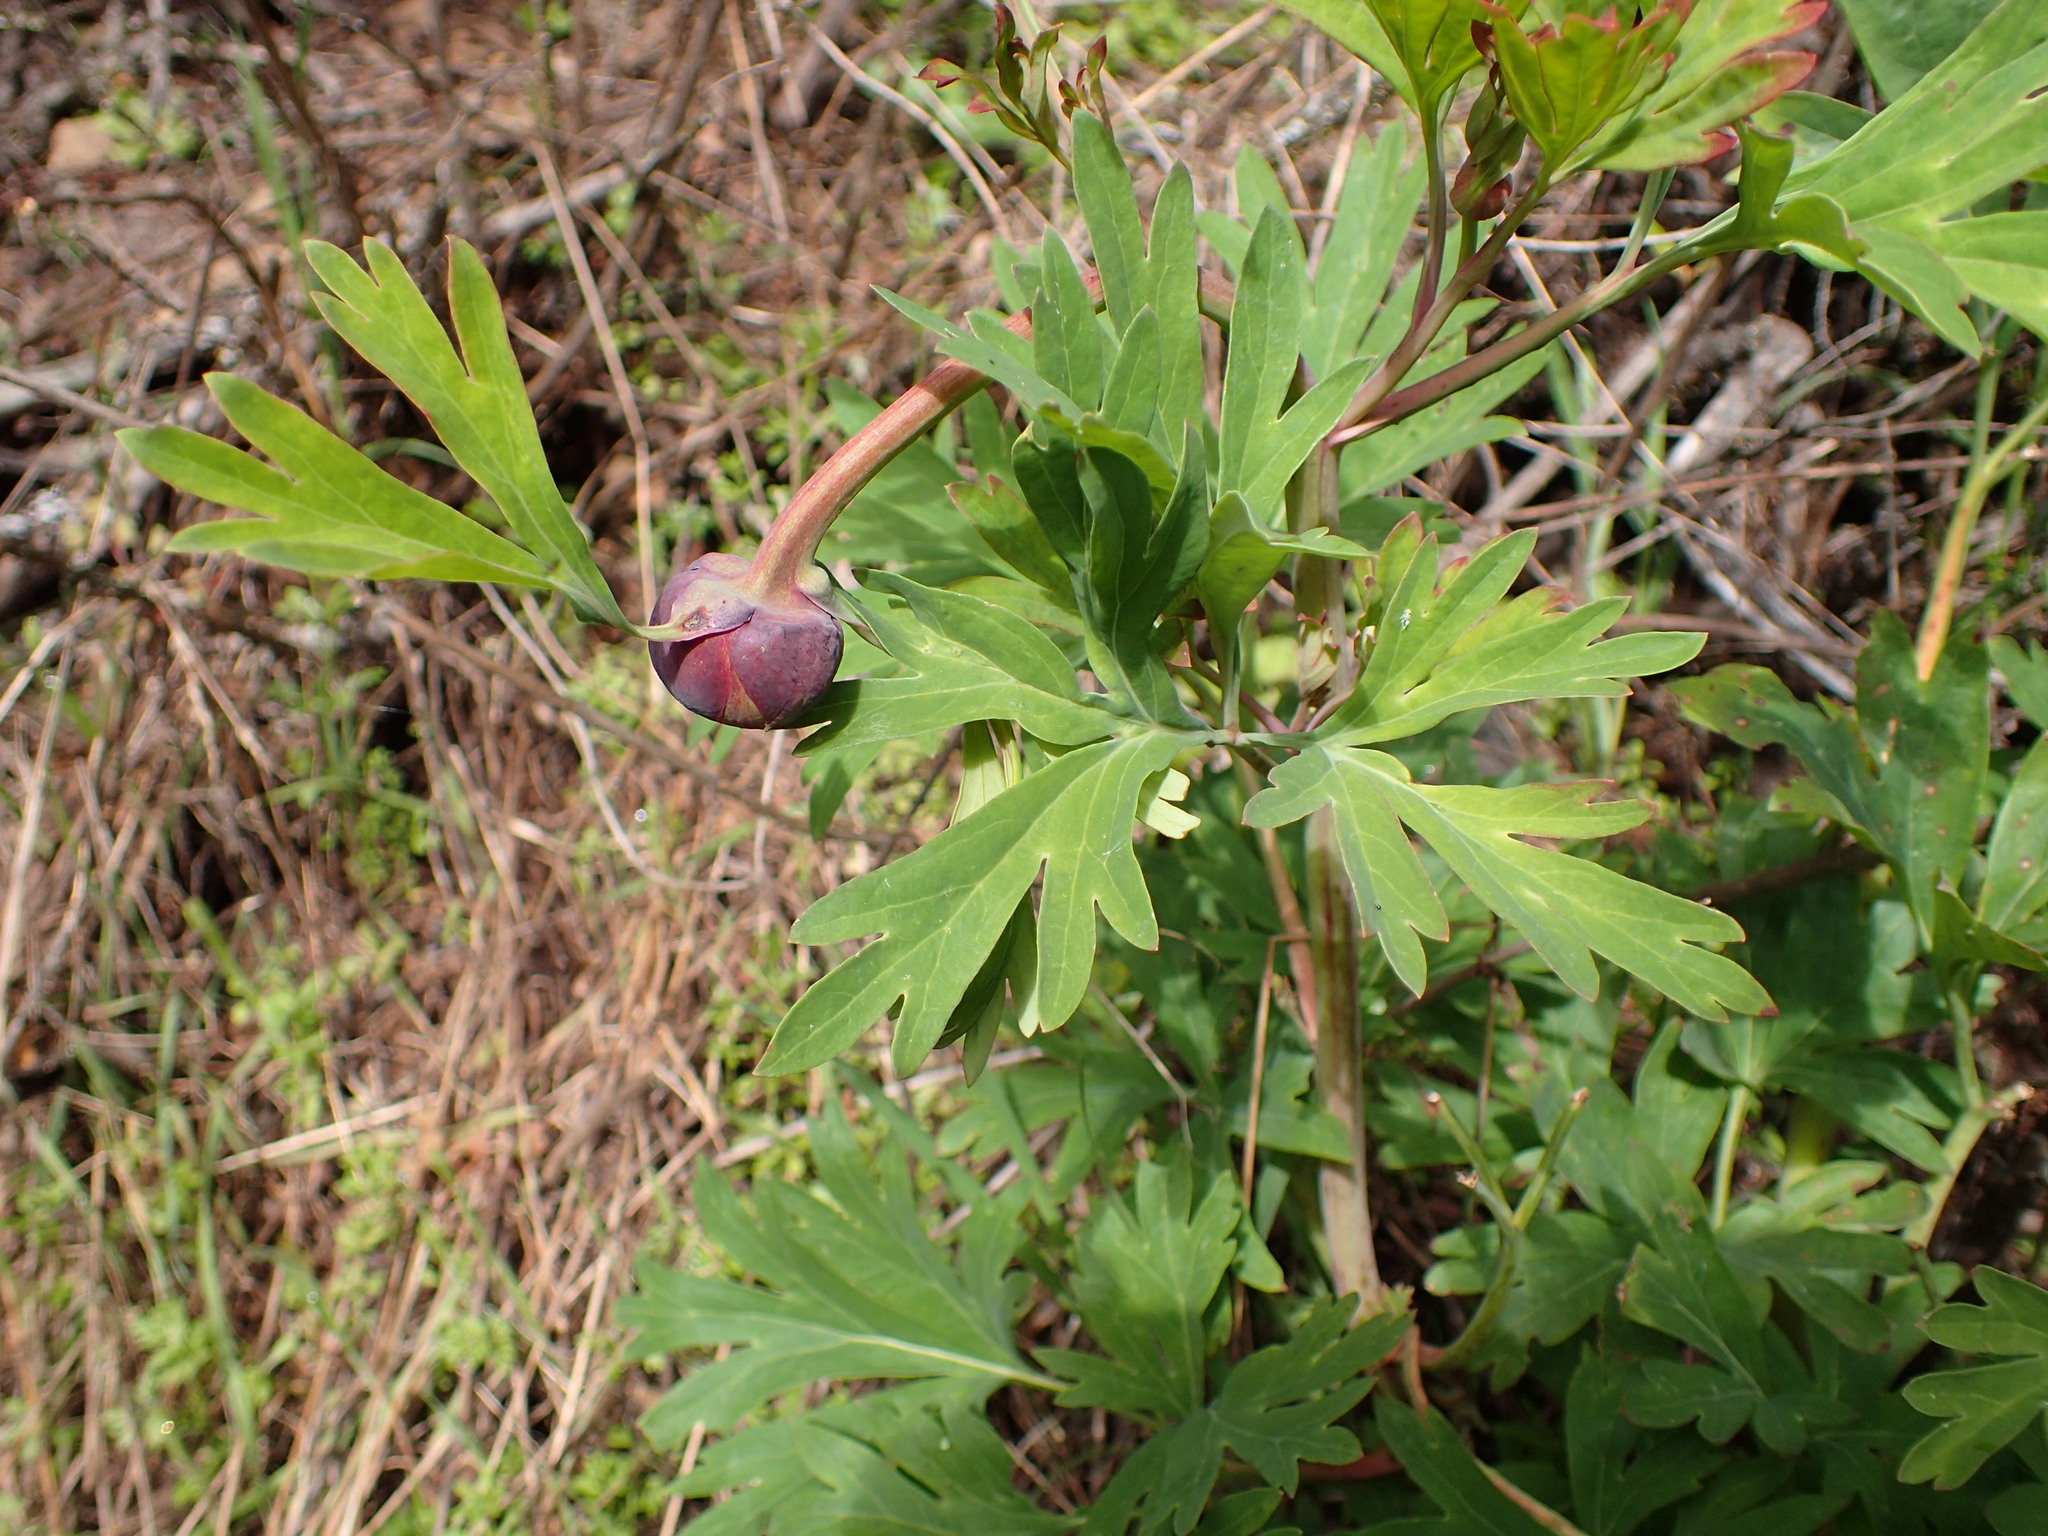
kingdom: Plantae
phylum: Tracheophyta
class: Magnoliopsida
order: Saxifragales
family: Paeoniaceae
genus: Paeonia
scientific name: Paeonia californica
